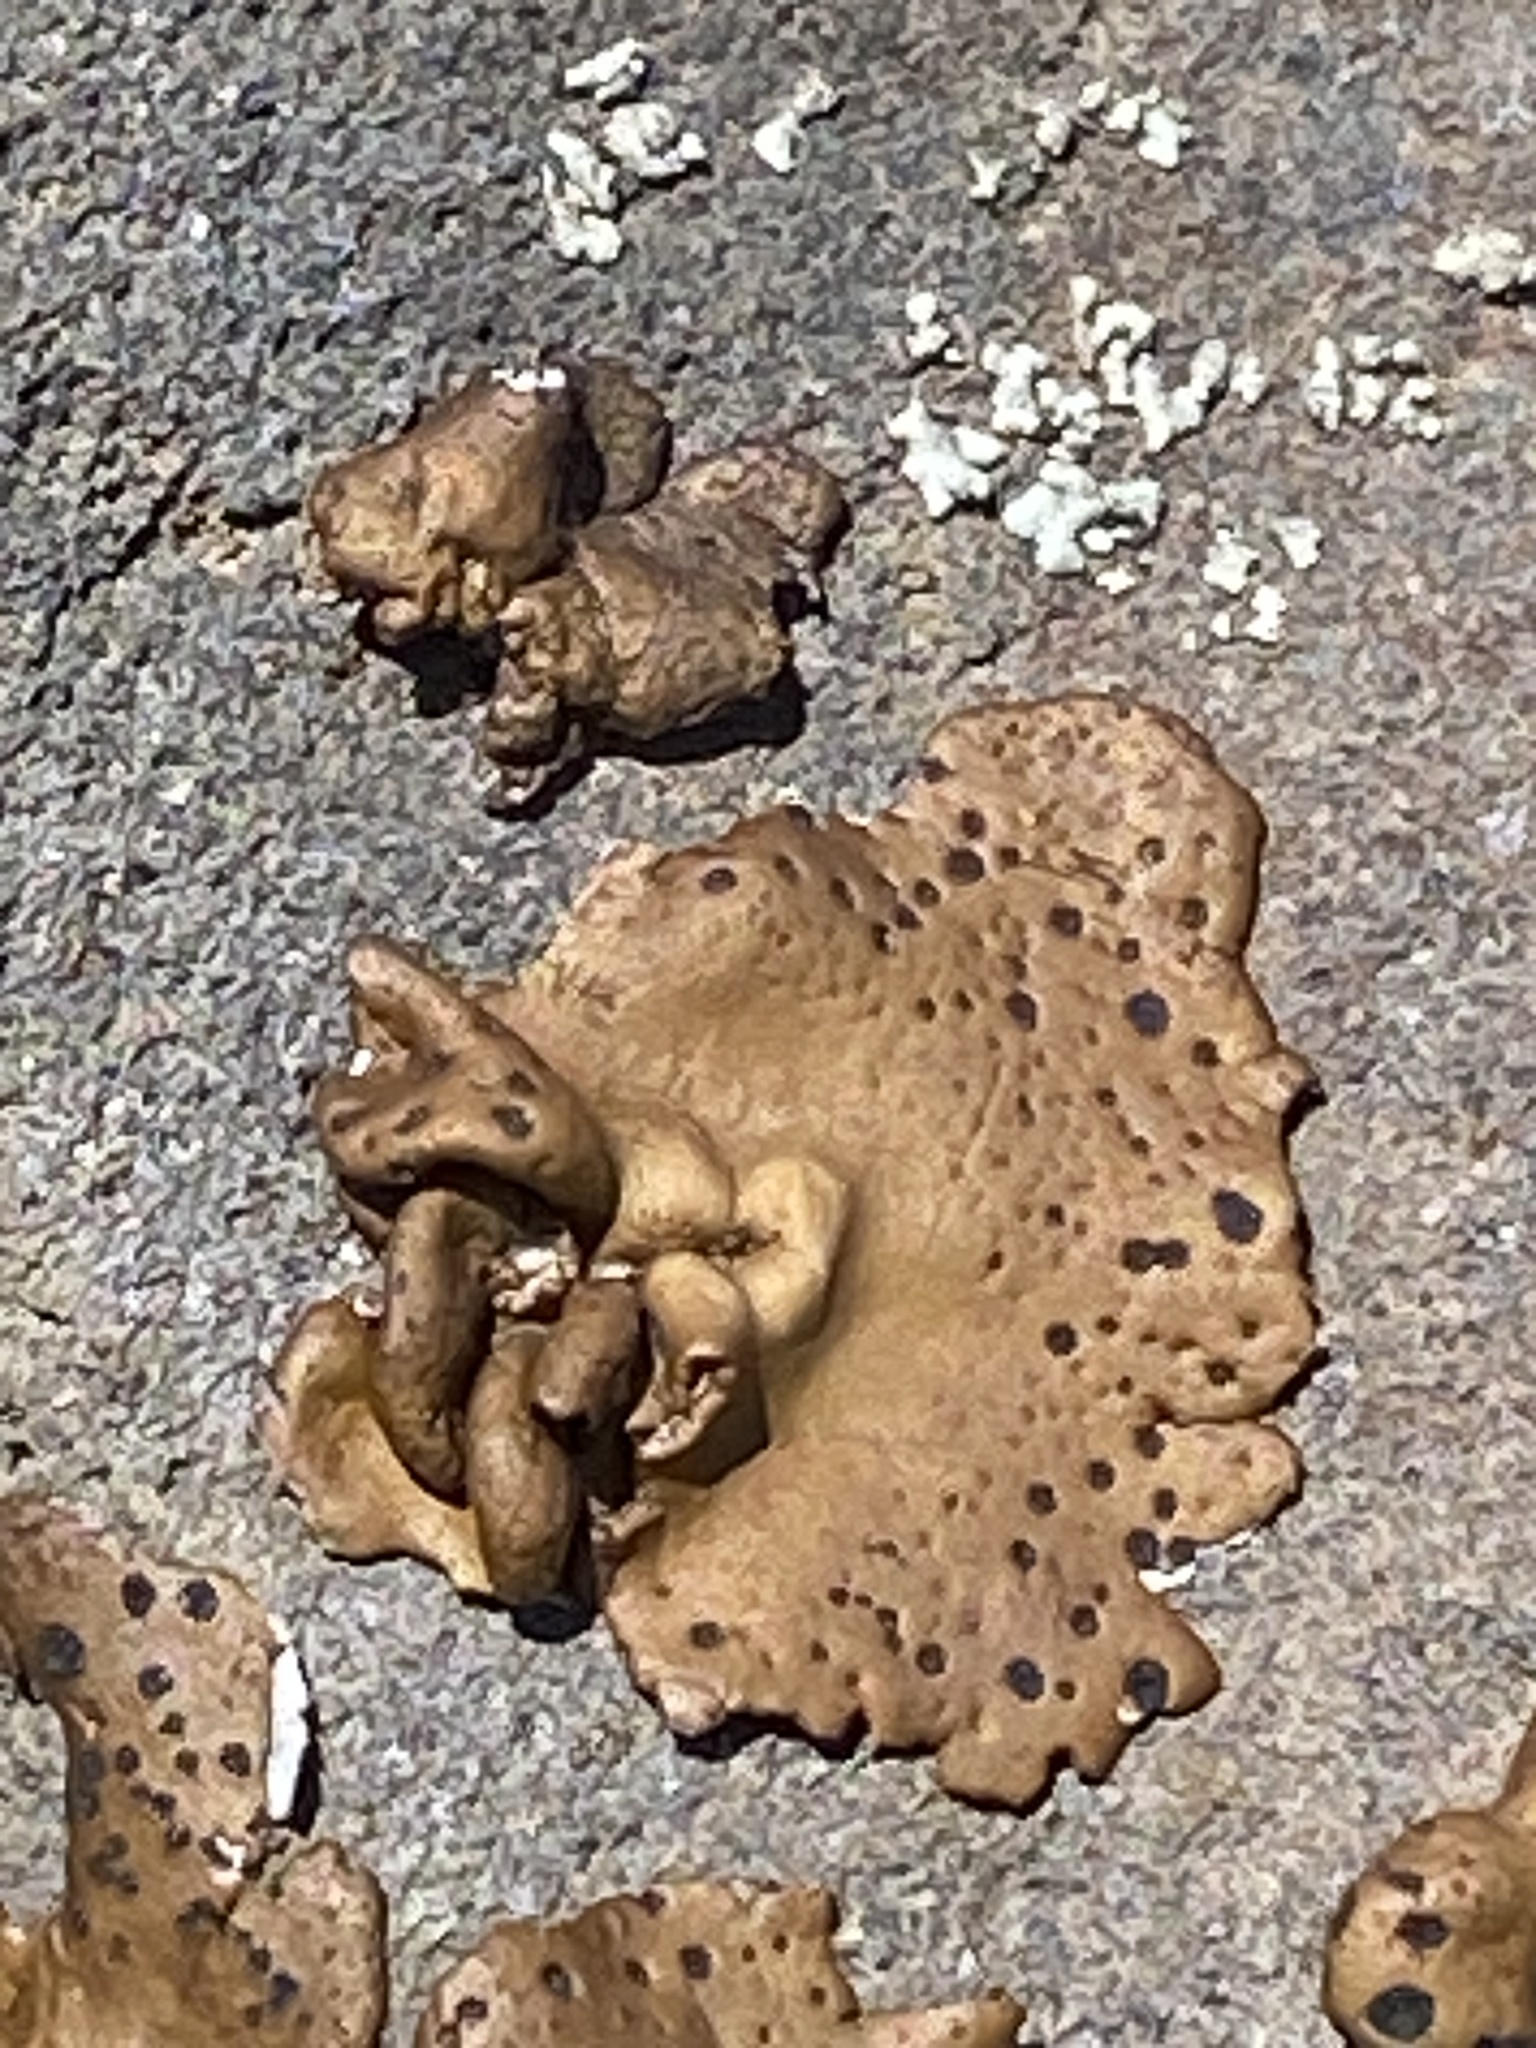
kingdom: Fungi
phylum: Ascomycota
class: Lecanoromycetes
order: Umbilicariales
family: Umbilicariaceae
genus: Umbilicaria
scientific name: Umbilicaria phaea
